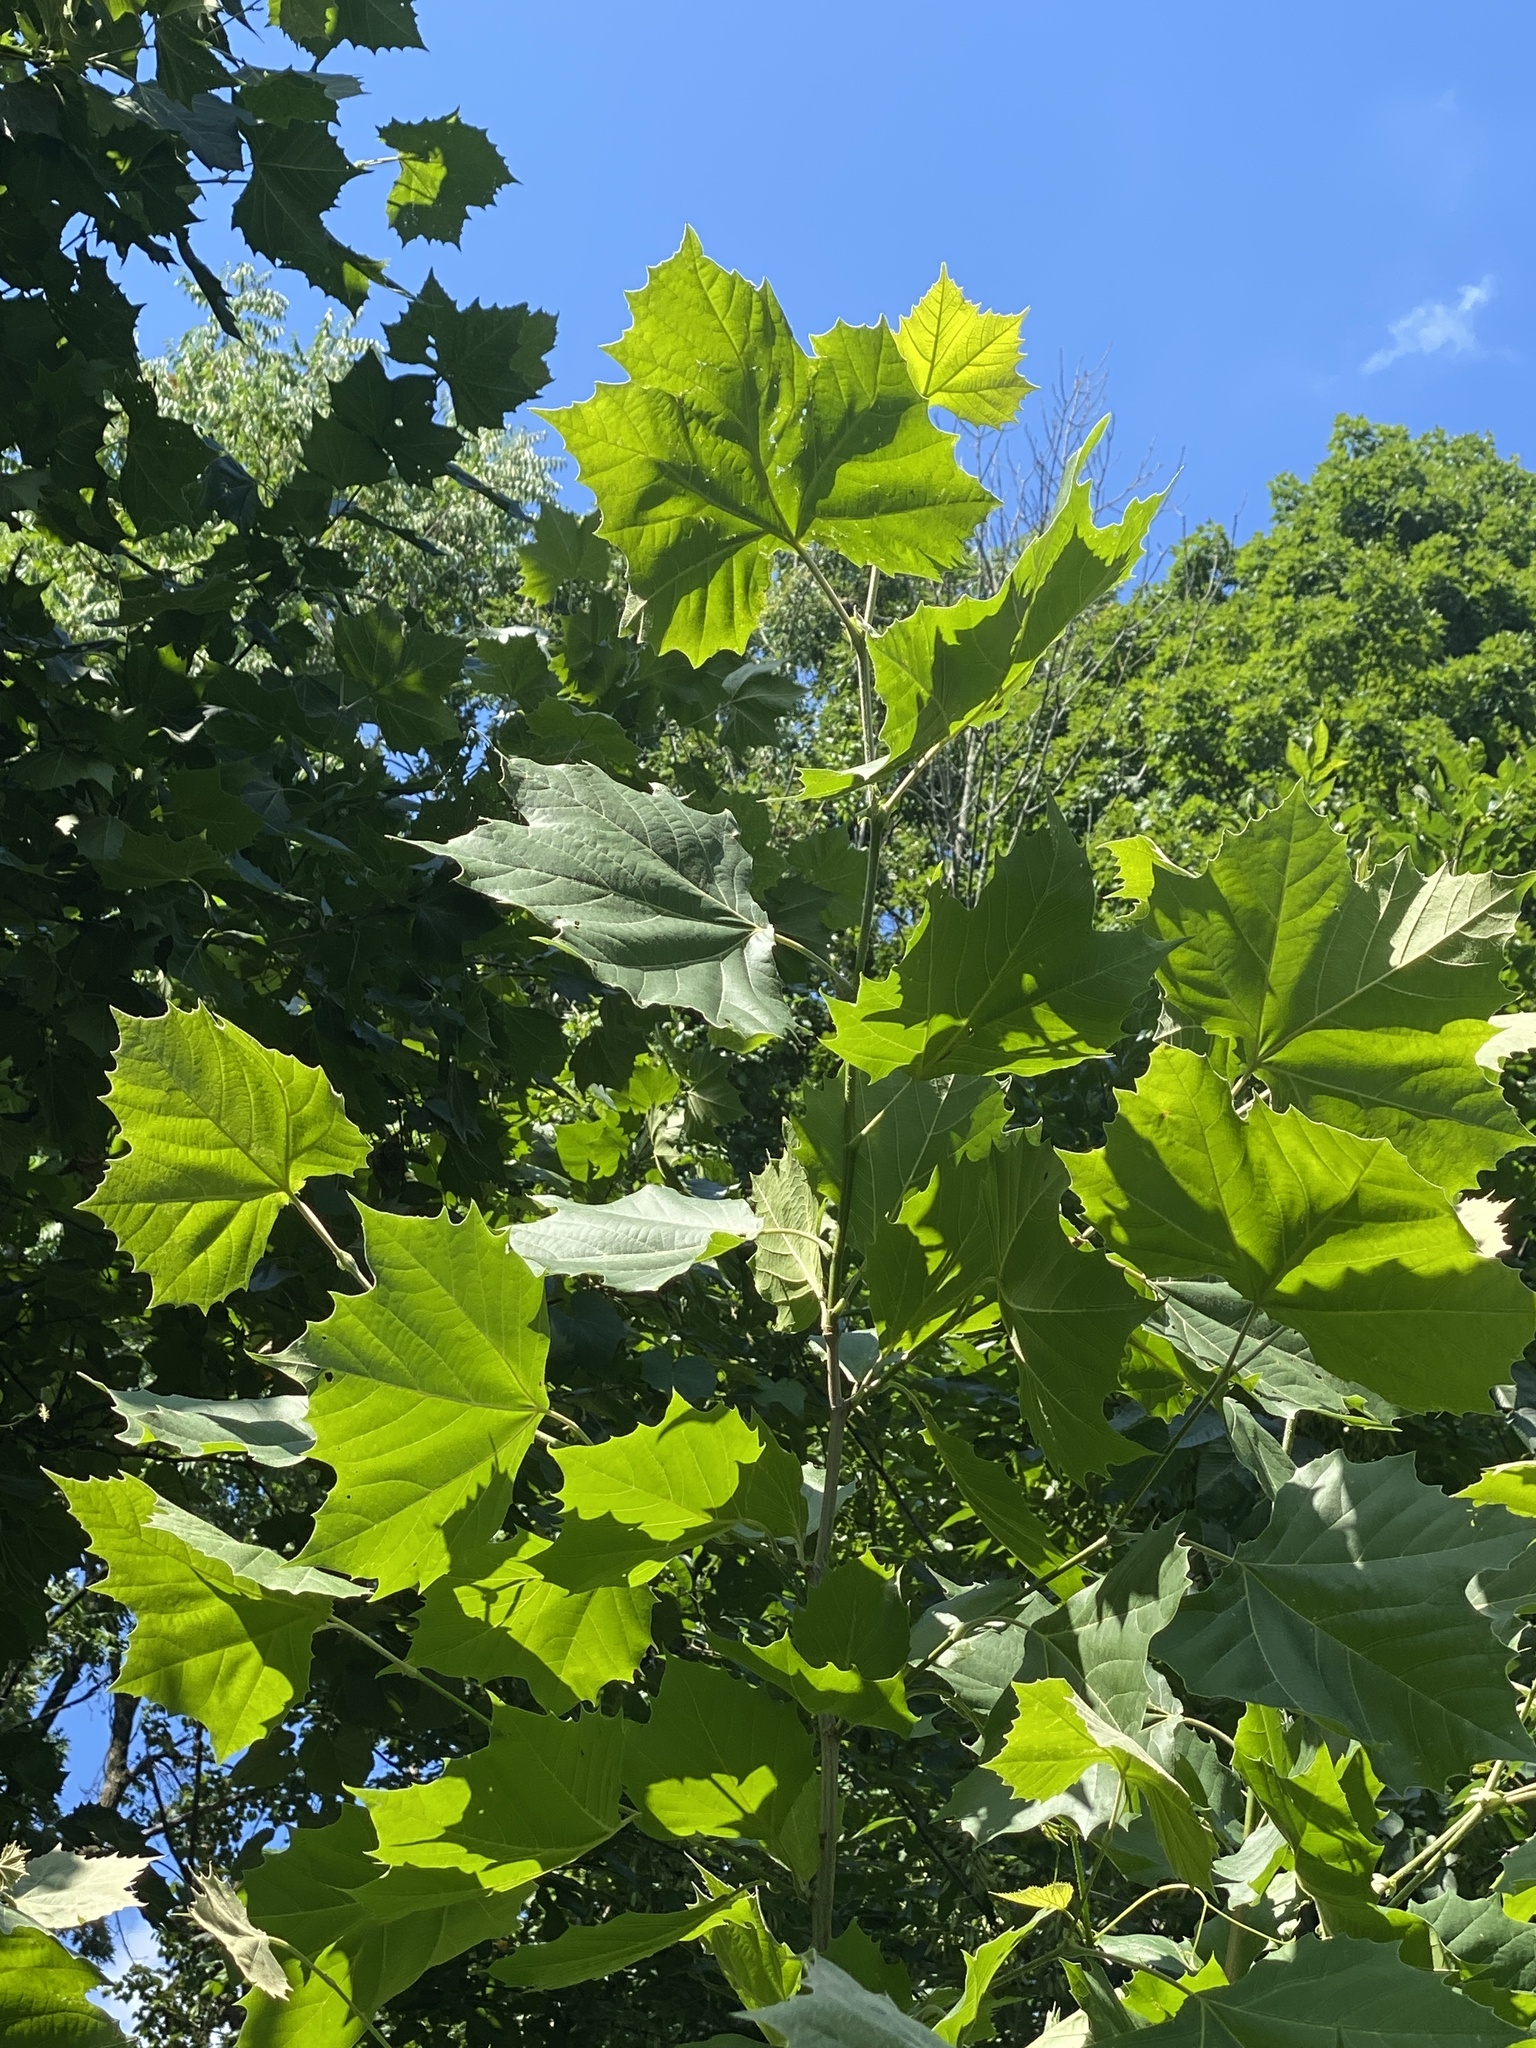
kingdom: Plantae
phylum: Tracheophyta
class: Magnoliopsida
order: Proteales
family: Platanaceae
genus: Platanus
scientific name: Platanus occidentalis
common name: American sycamore
